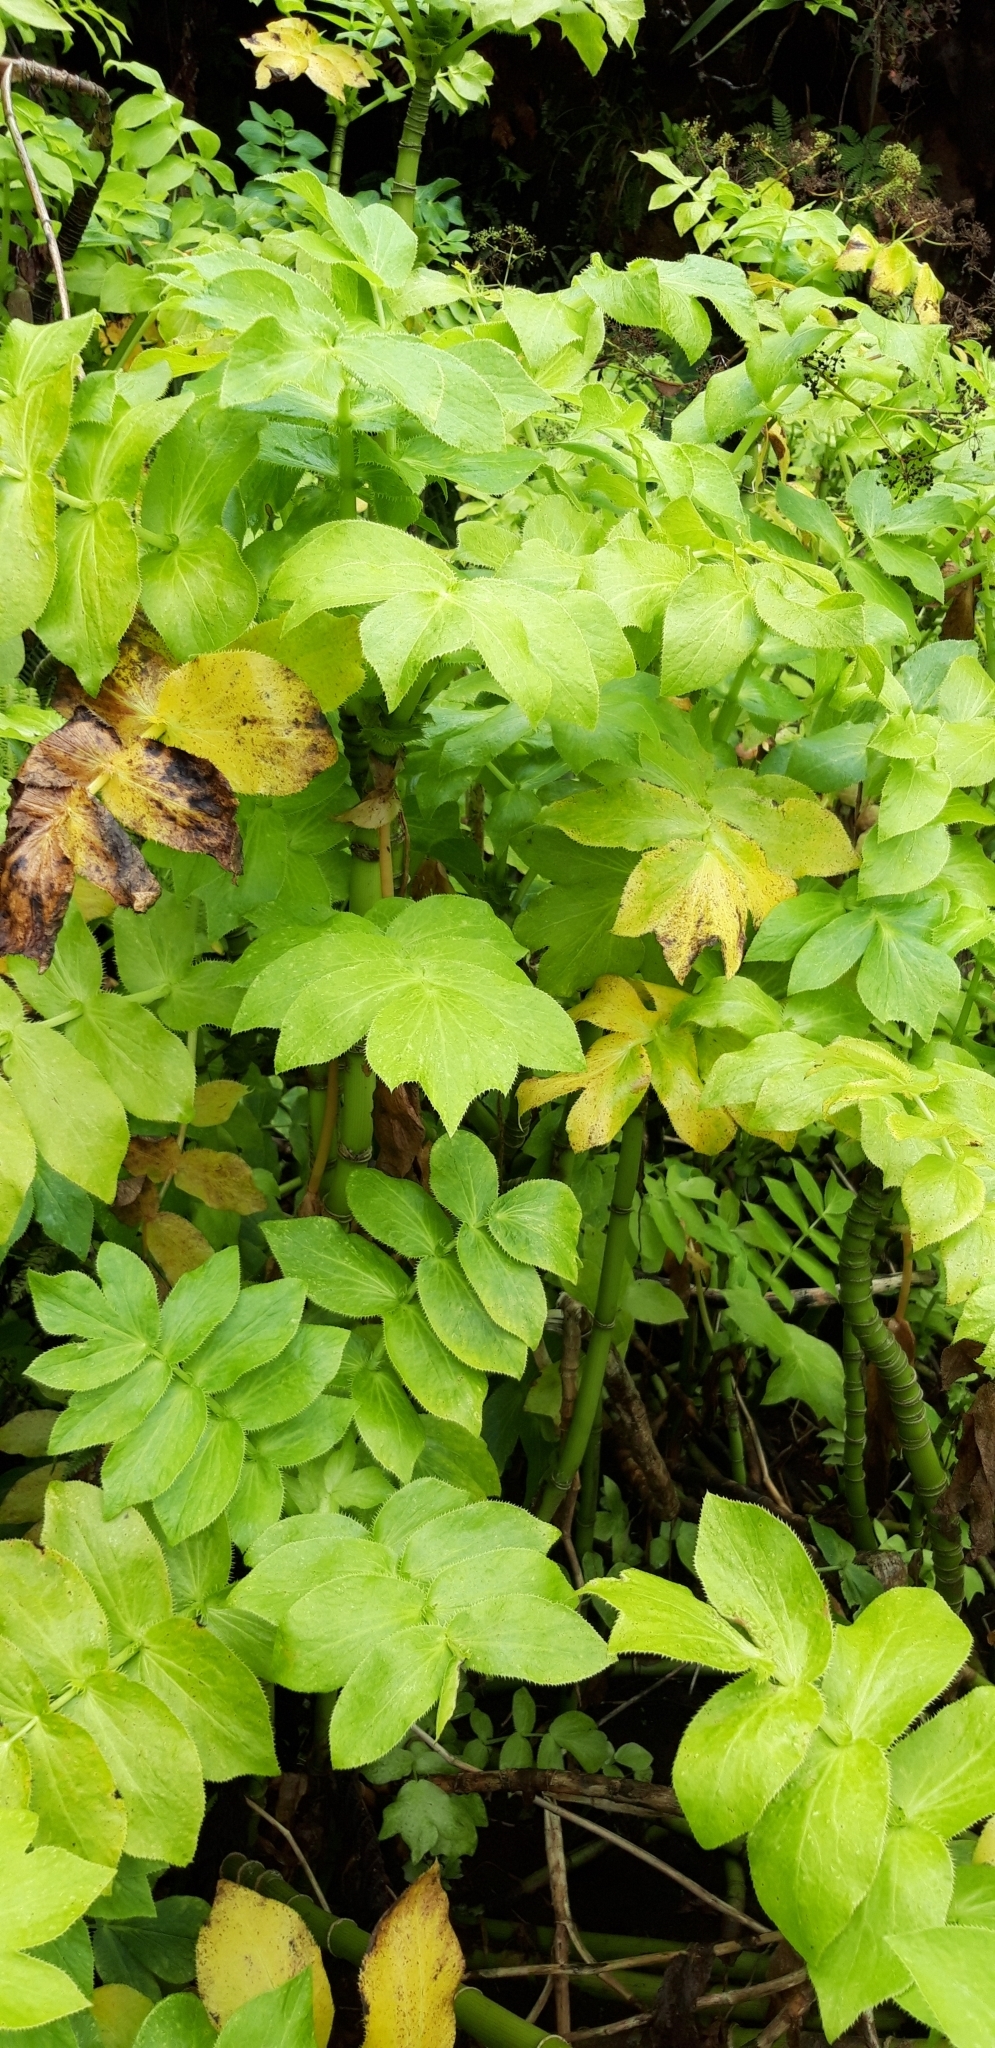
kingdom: Plantae
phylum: Tracheophyta
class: Magnoliopsida
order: Apiales
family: Apiaceae
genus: Berula
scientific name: Berula bracteata
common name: Jellico
